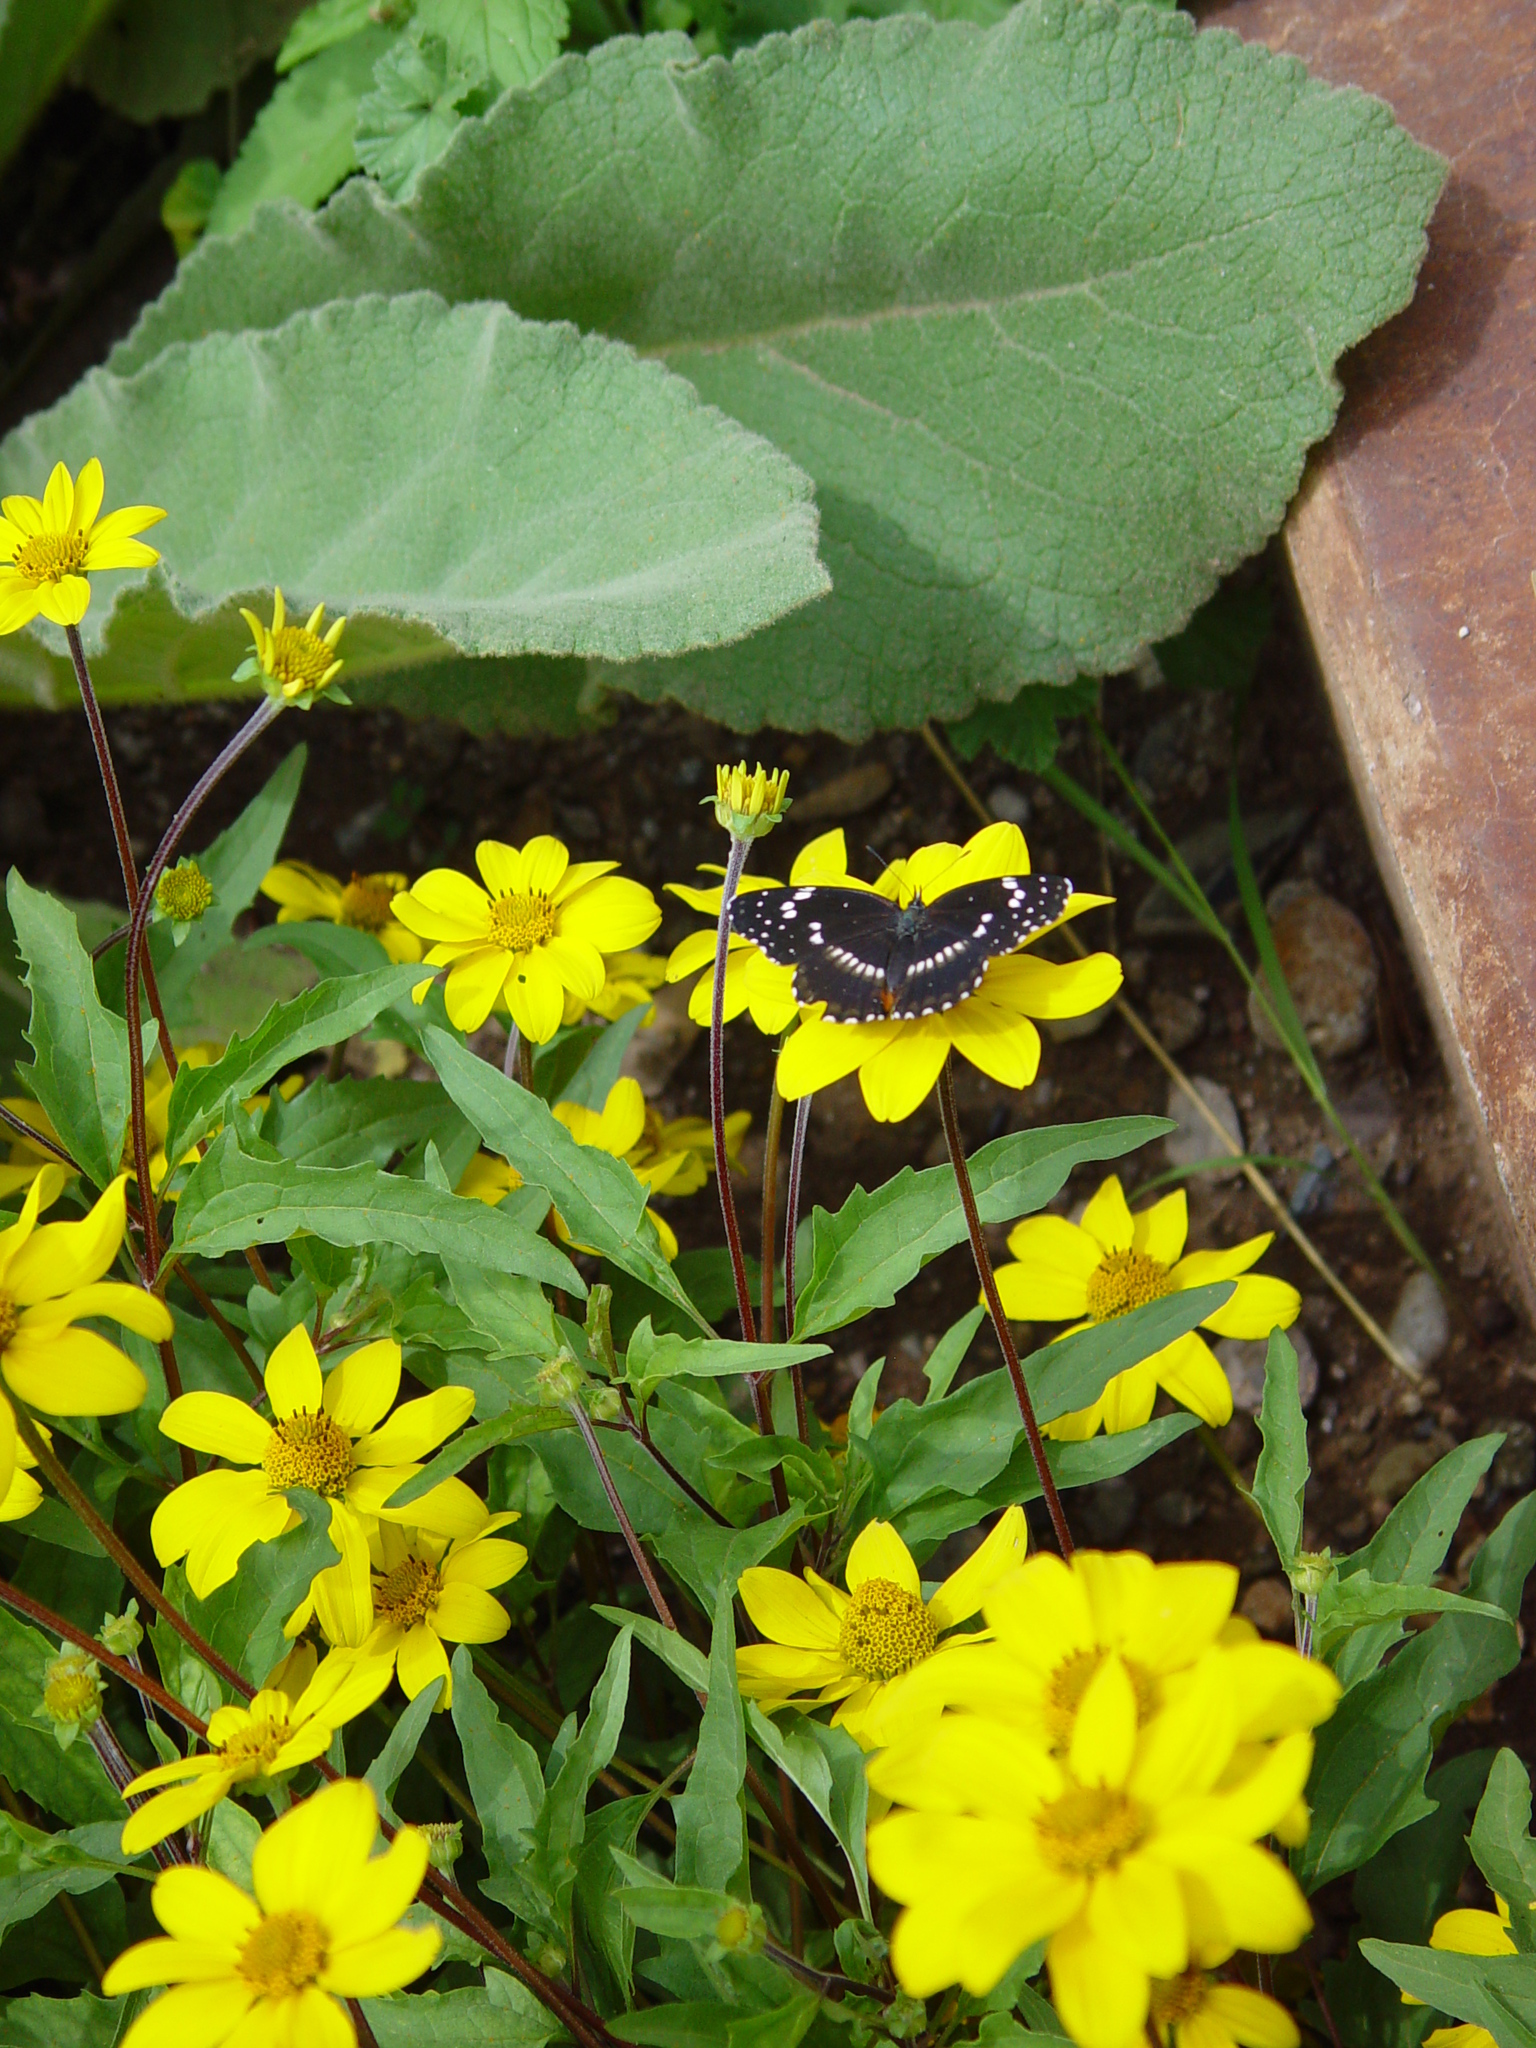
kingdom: Animalia
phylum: Arthropoda
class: Insecta
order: Lepidoptera
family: Nymphalidae
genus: Chlosyne
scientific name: Chlosyne lacinia
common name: Bordered patch
